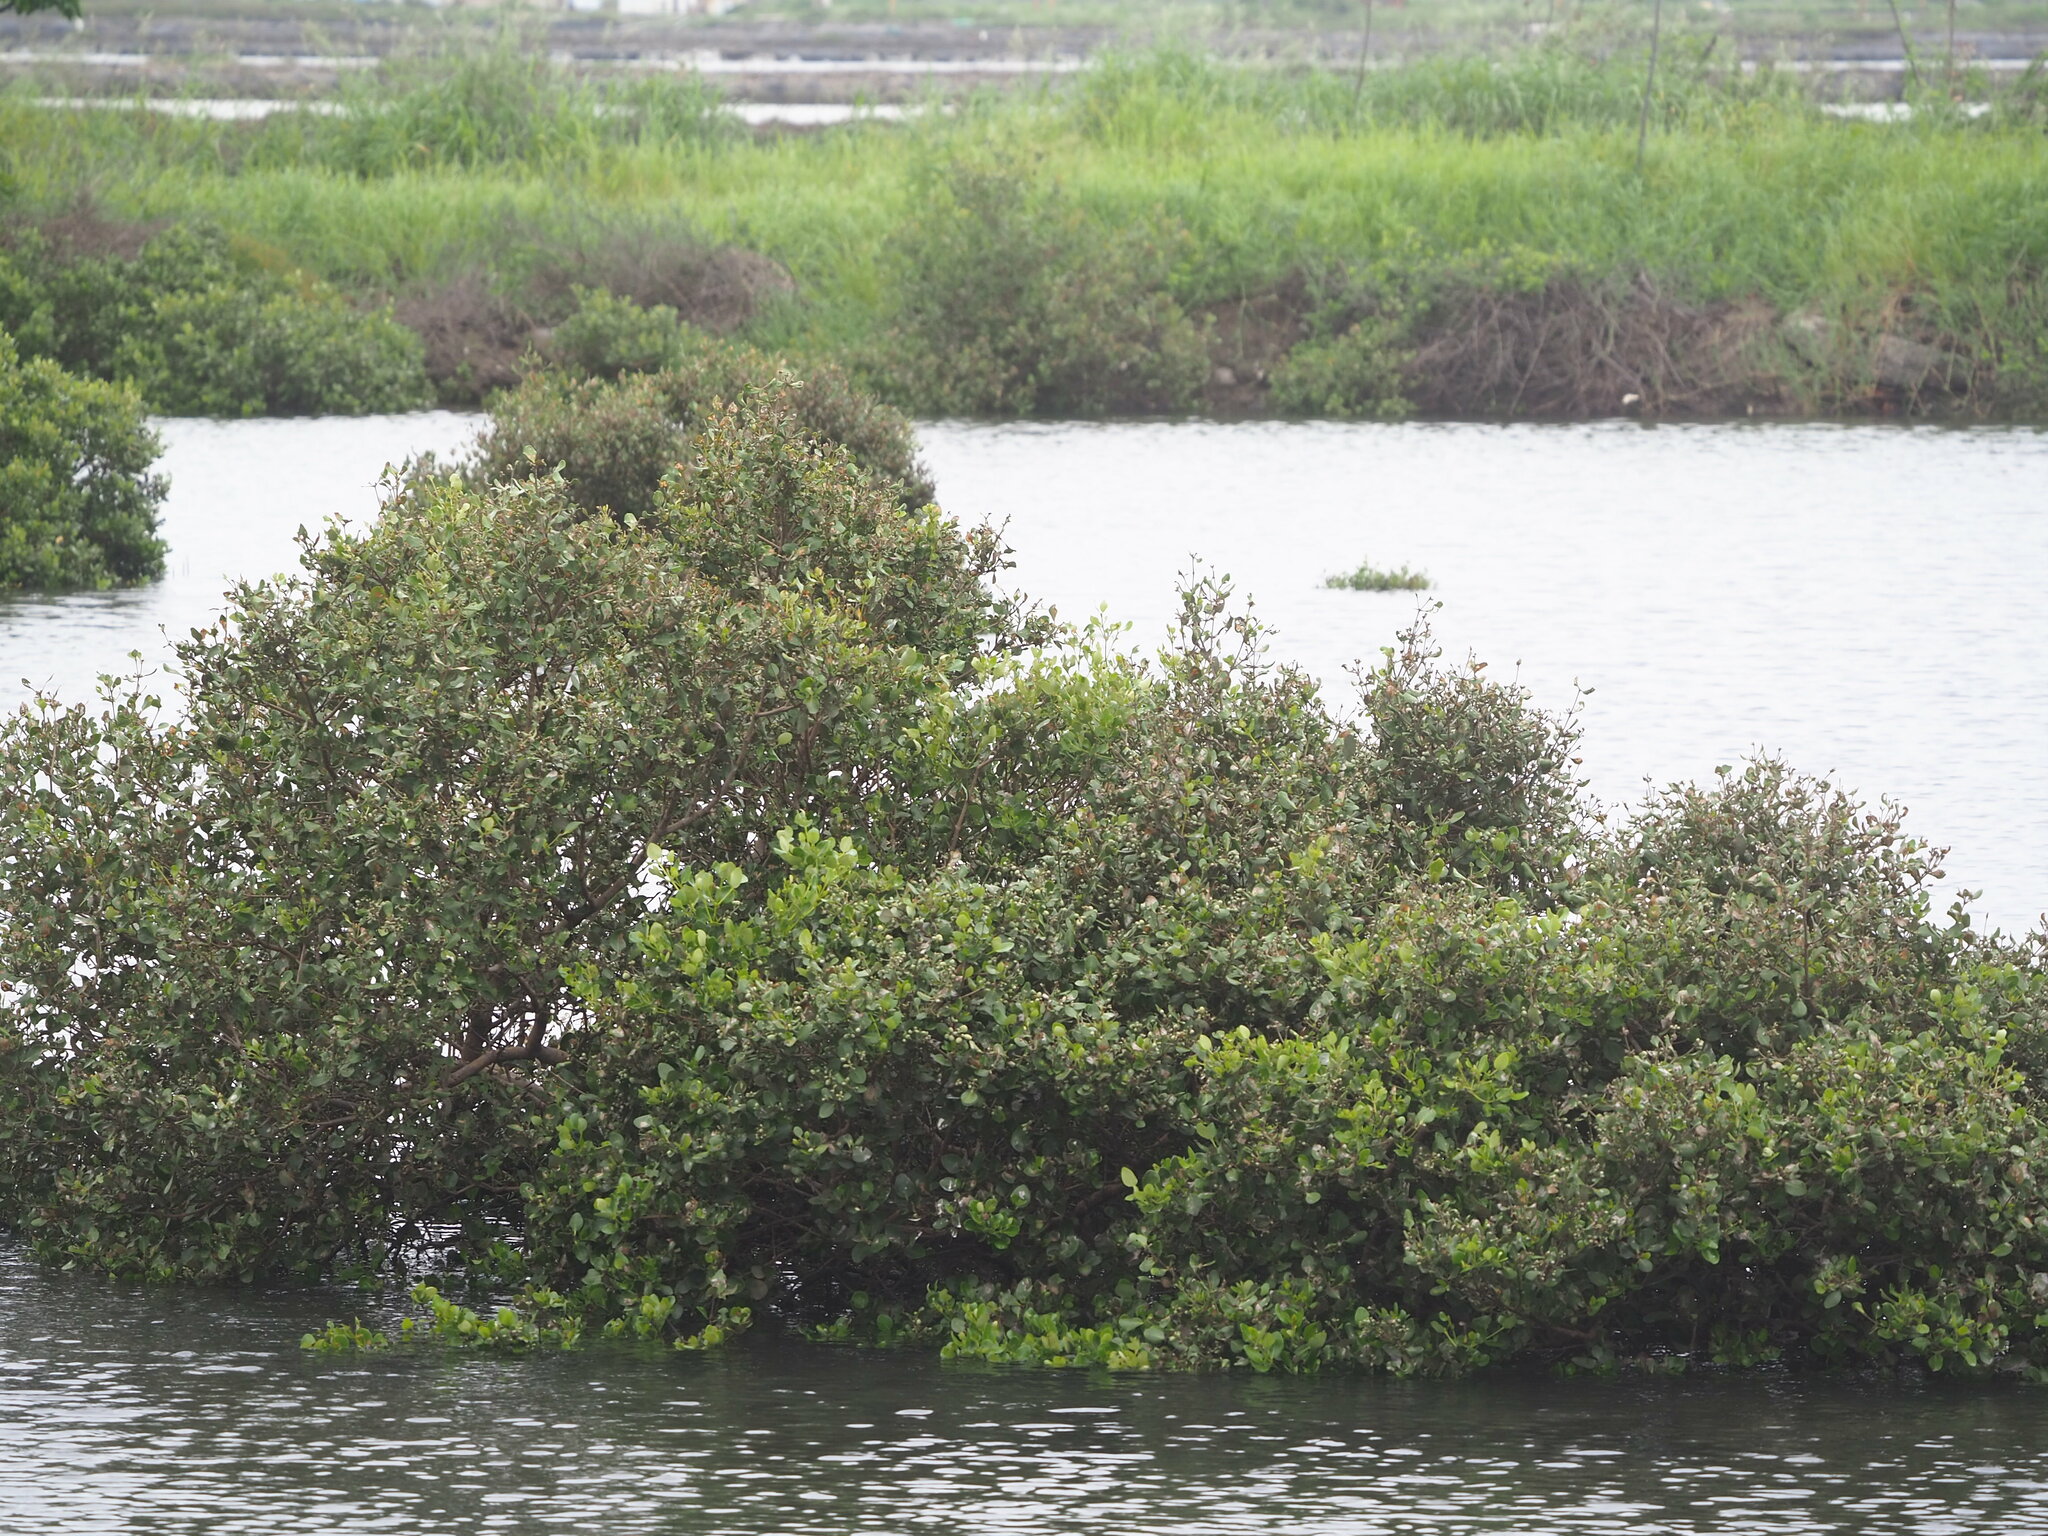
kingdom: Plantae
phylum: Tracheophyta
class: Magnoliopsida
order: Lamiales
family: Acanthaceae
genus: Avicennia
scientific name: Avicennia marina
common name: Gray mangrove
